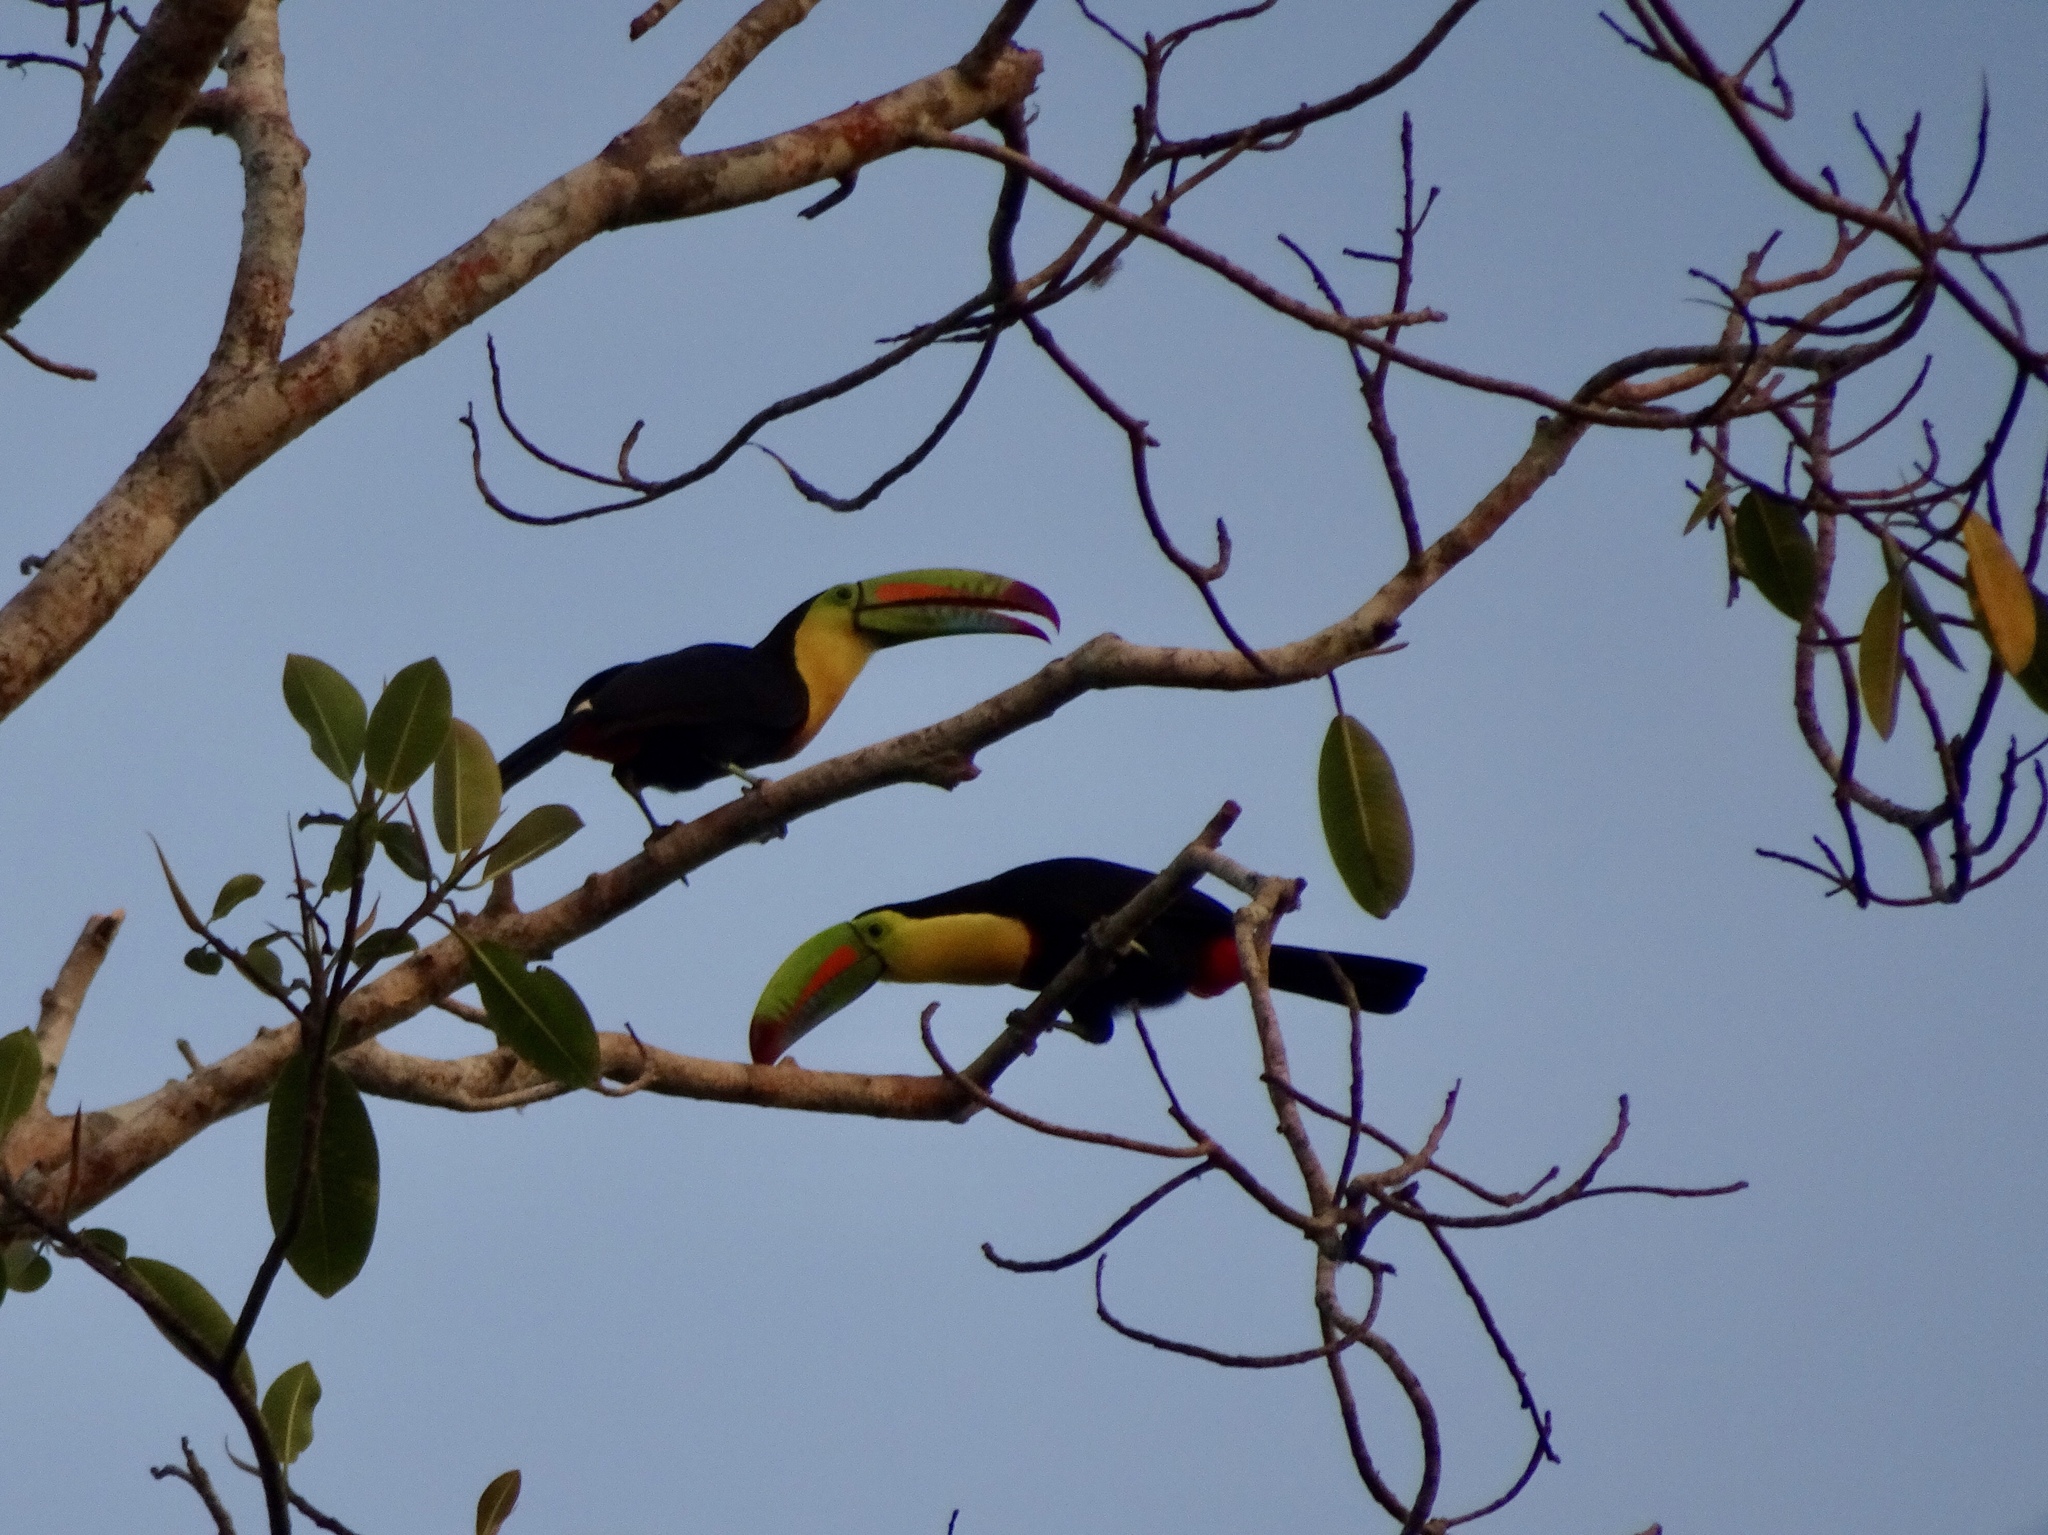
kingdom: Animalia
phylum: Chordata
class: Aves
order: Piciformes
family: Ramphastidae
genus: Ramphastos
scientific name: Ramphastos sulfuratus
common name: Keel-billed toucan
